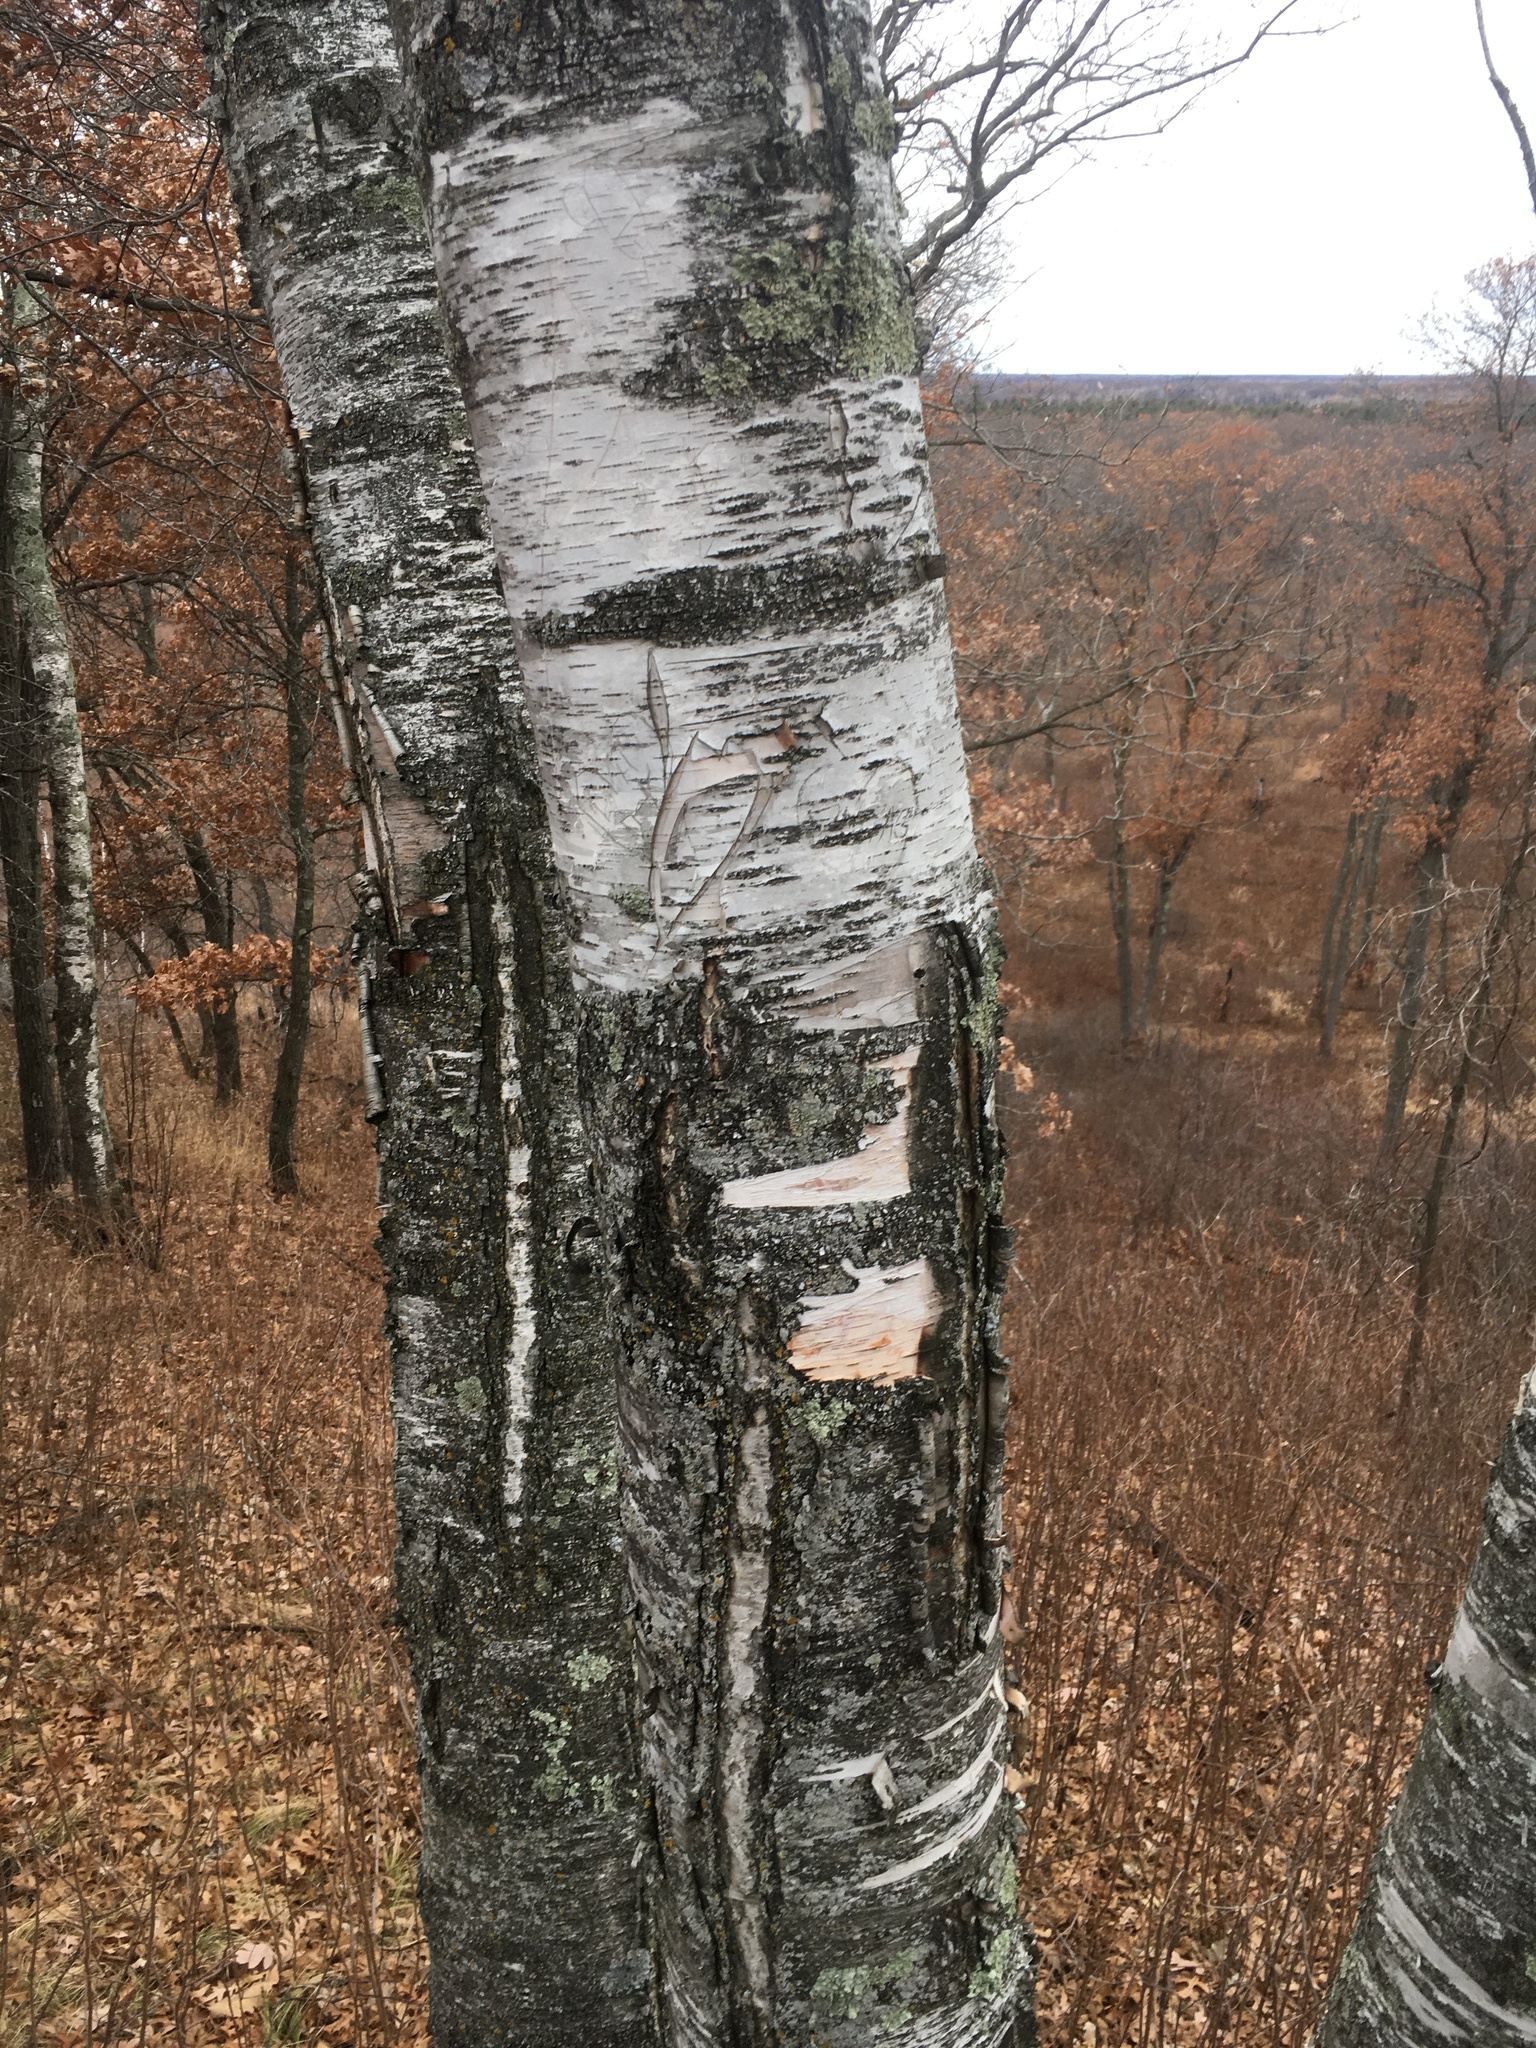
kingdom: Plantae
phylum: Tracheophyta
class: Magnoliopsida
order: Fagales
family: Betulaceae
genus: Betula
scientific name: Betula papyrifera
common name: Paper birch
